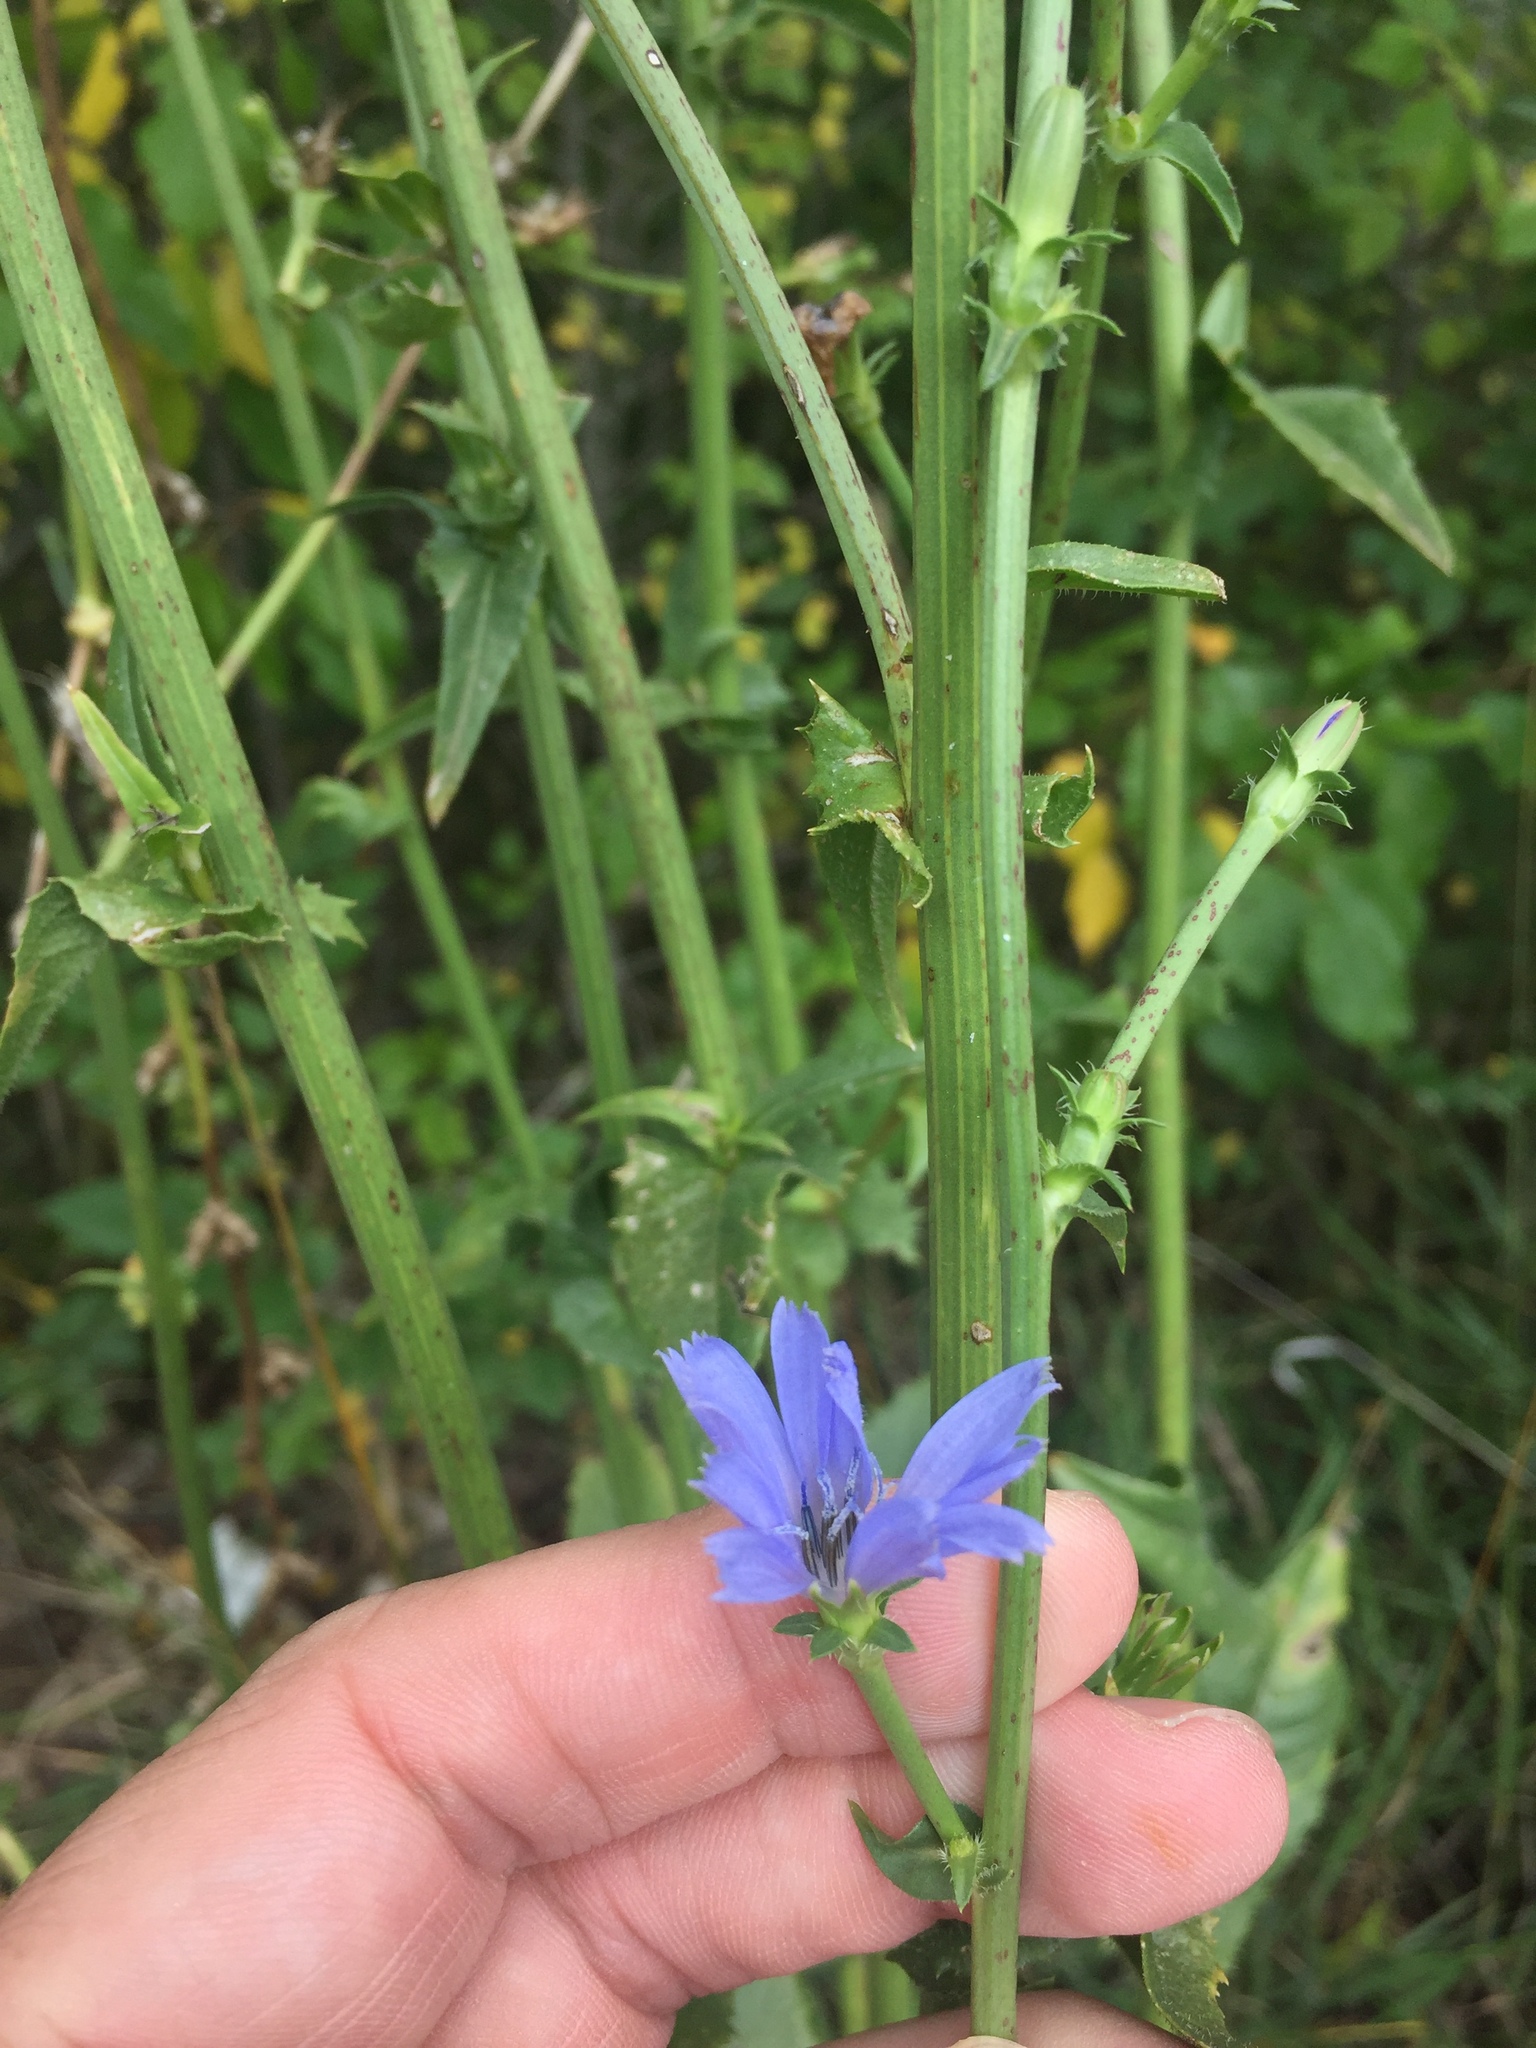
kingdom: Plantae
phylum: Tracheophyta
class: Magnoliopsida
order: Asterales
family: Asteraceae
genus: Cichorium
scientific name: Cichorium intybus
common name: Chicory
